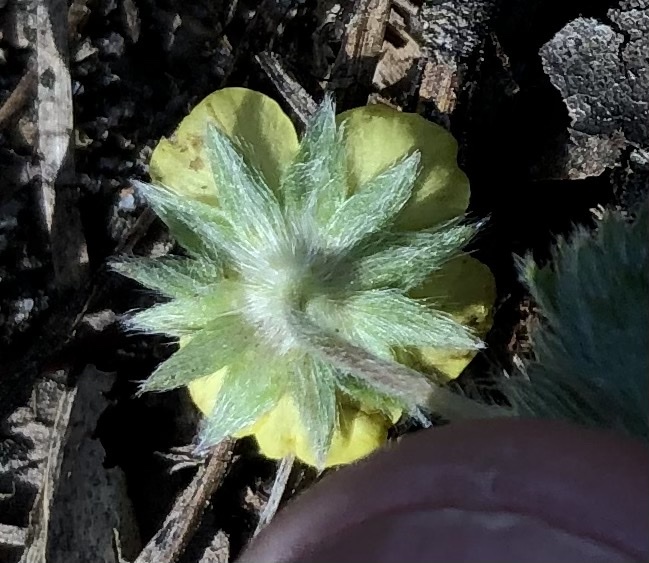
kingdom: Plantae
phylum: Tracheophyta
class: Magnoliopsida
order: Rosales
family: Rosaceae
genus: Potentilla
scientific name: Potentilla canadensis
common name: Canada cinquefoil
